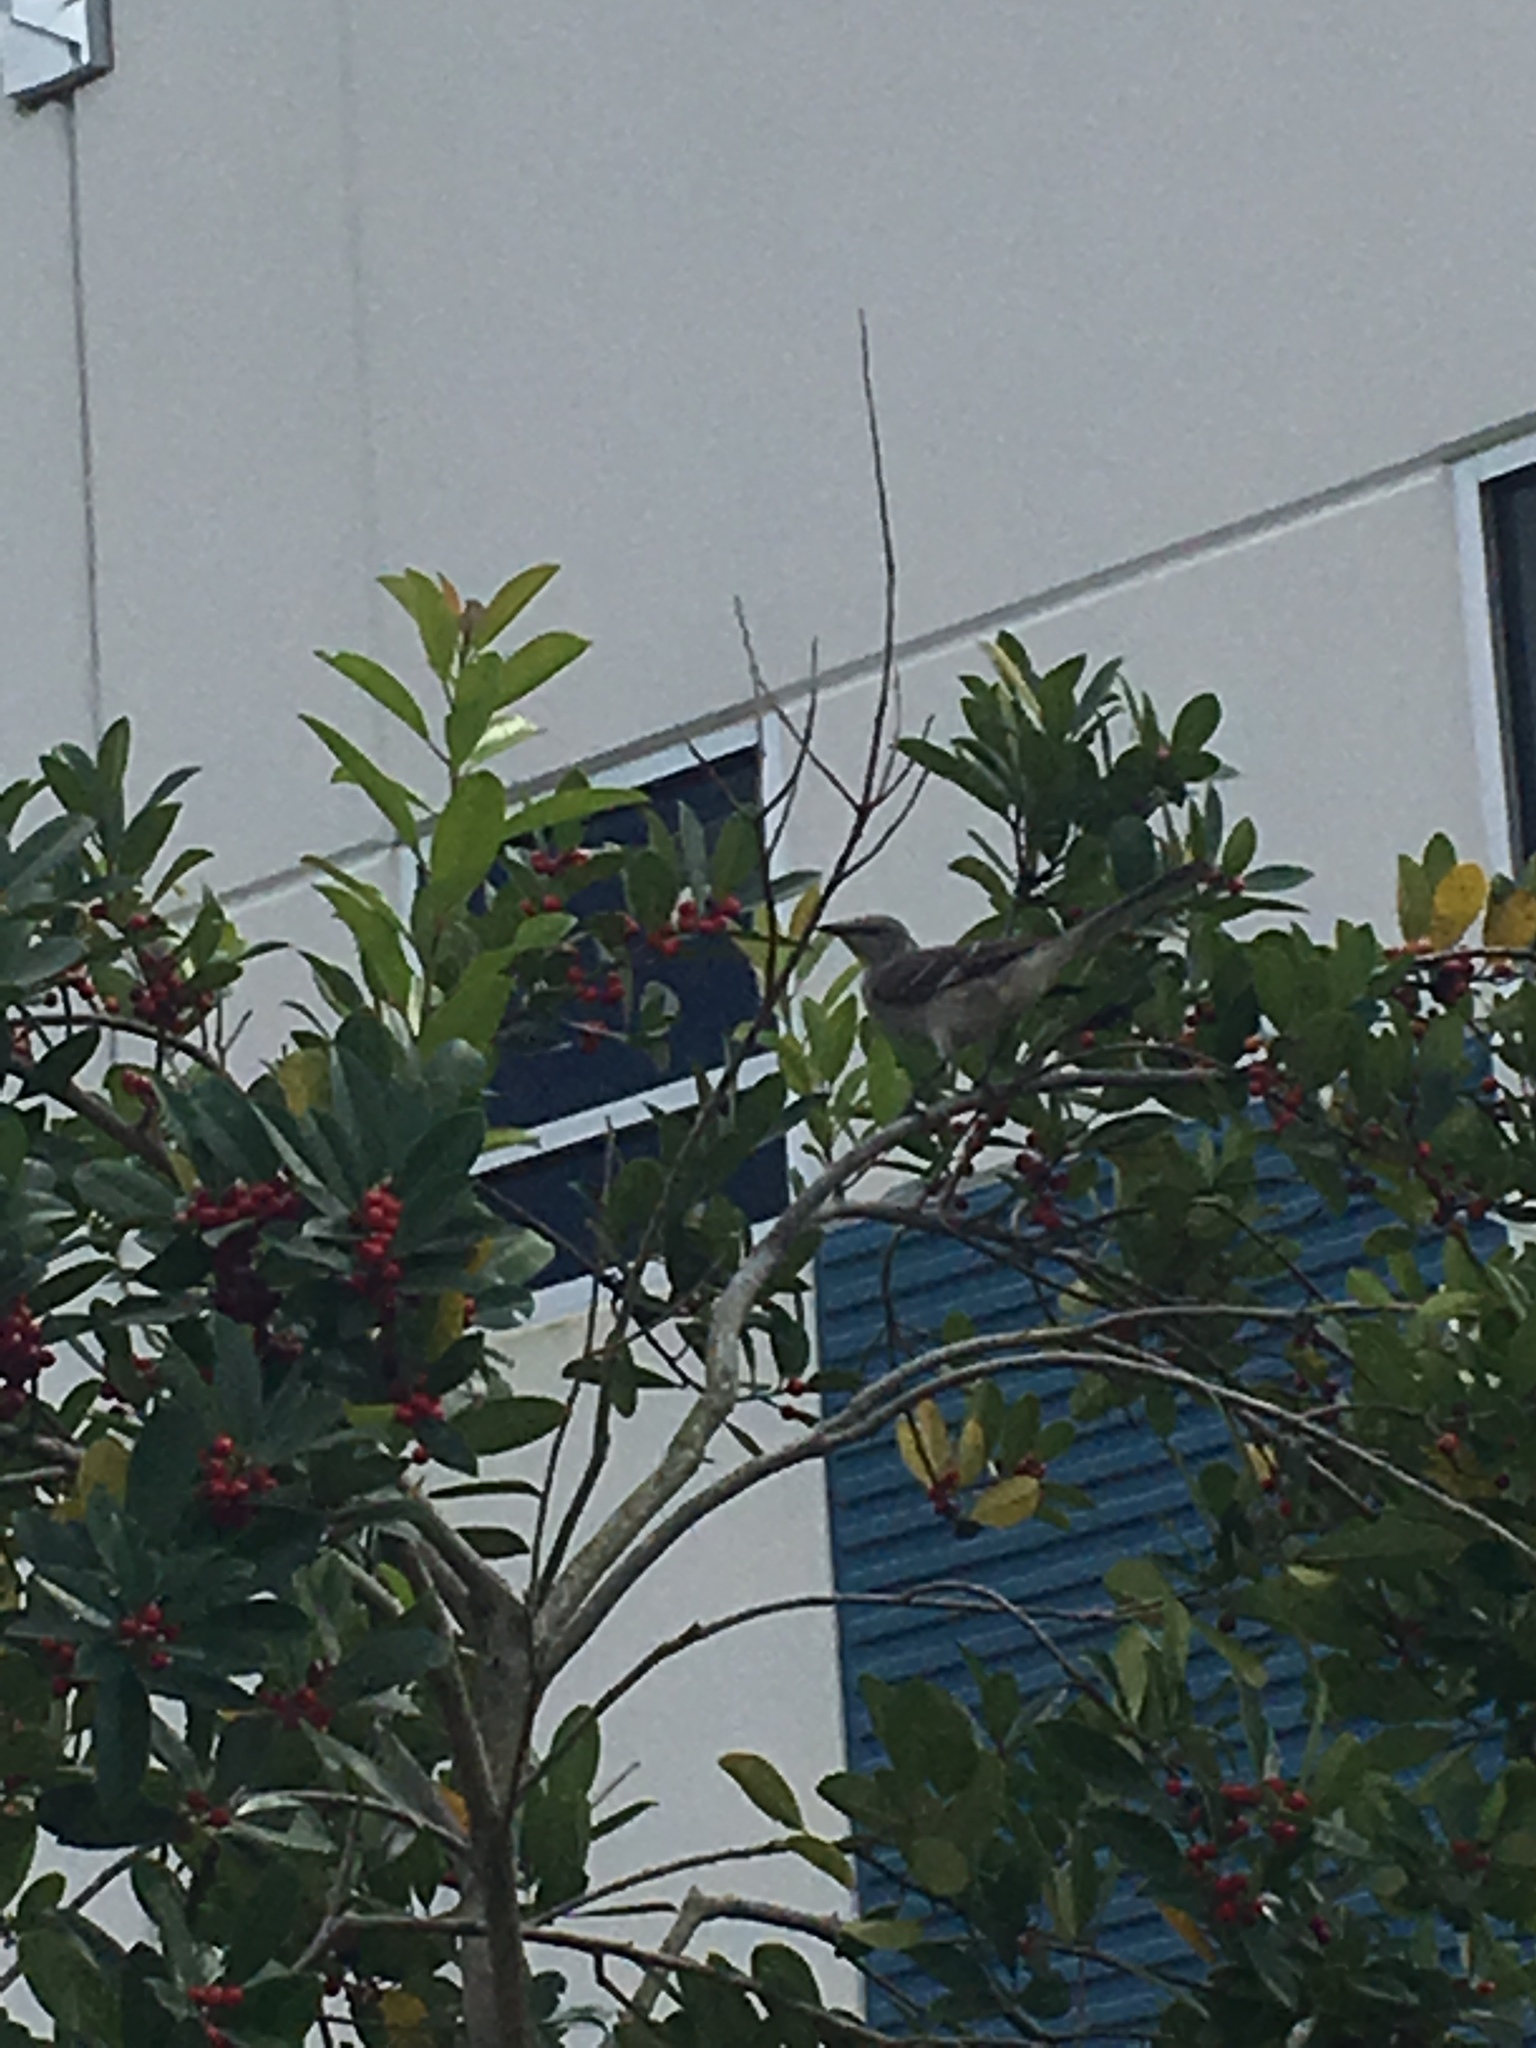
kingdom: Animalia
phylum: Chordata
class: Aves
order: Passeriformes
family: Mimidae
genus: Mimus
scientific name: Mimus polyglottos
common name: Northern mockingbird
